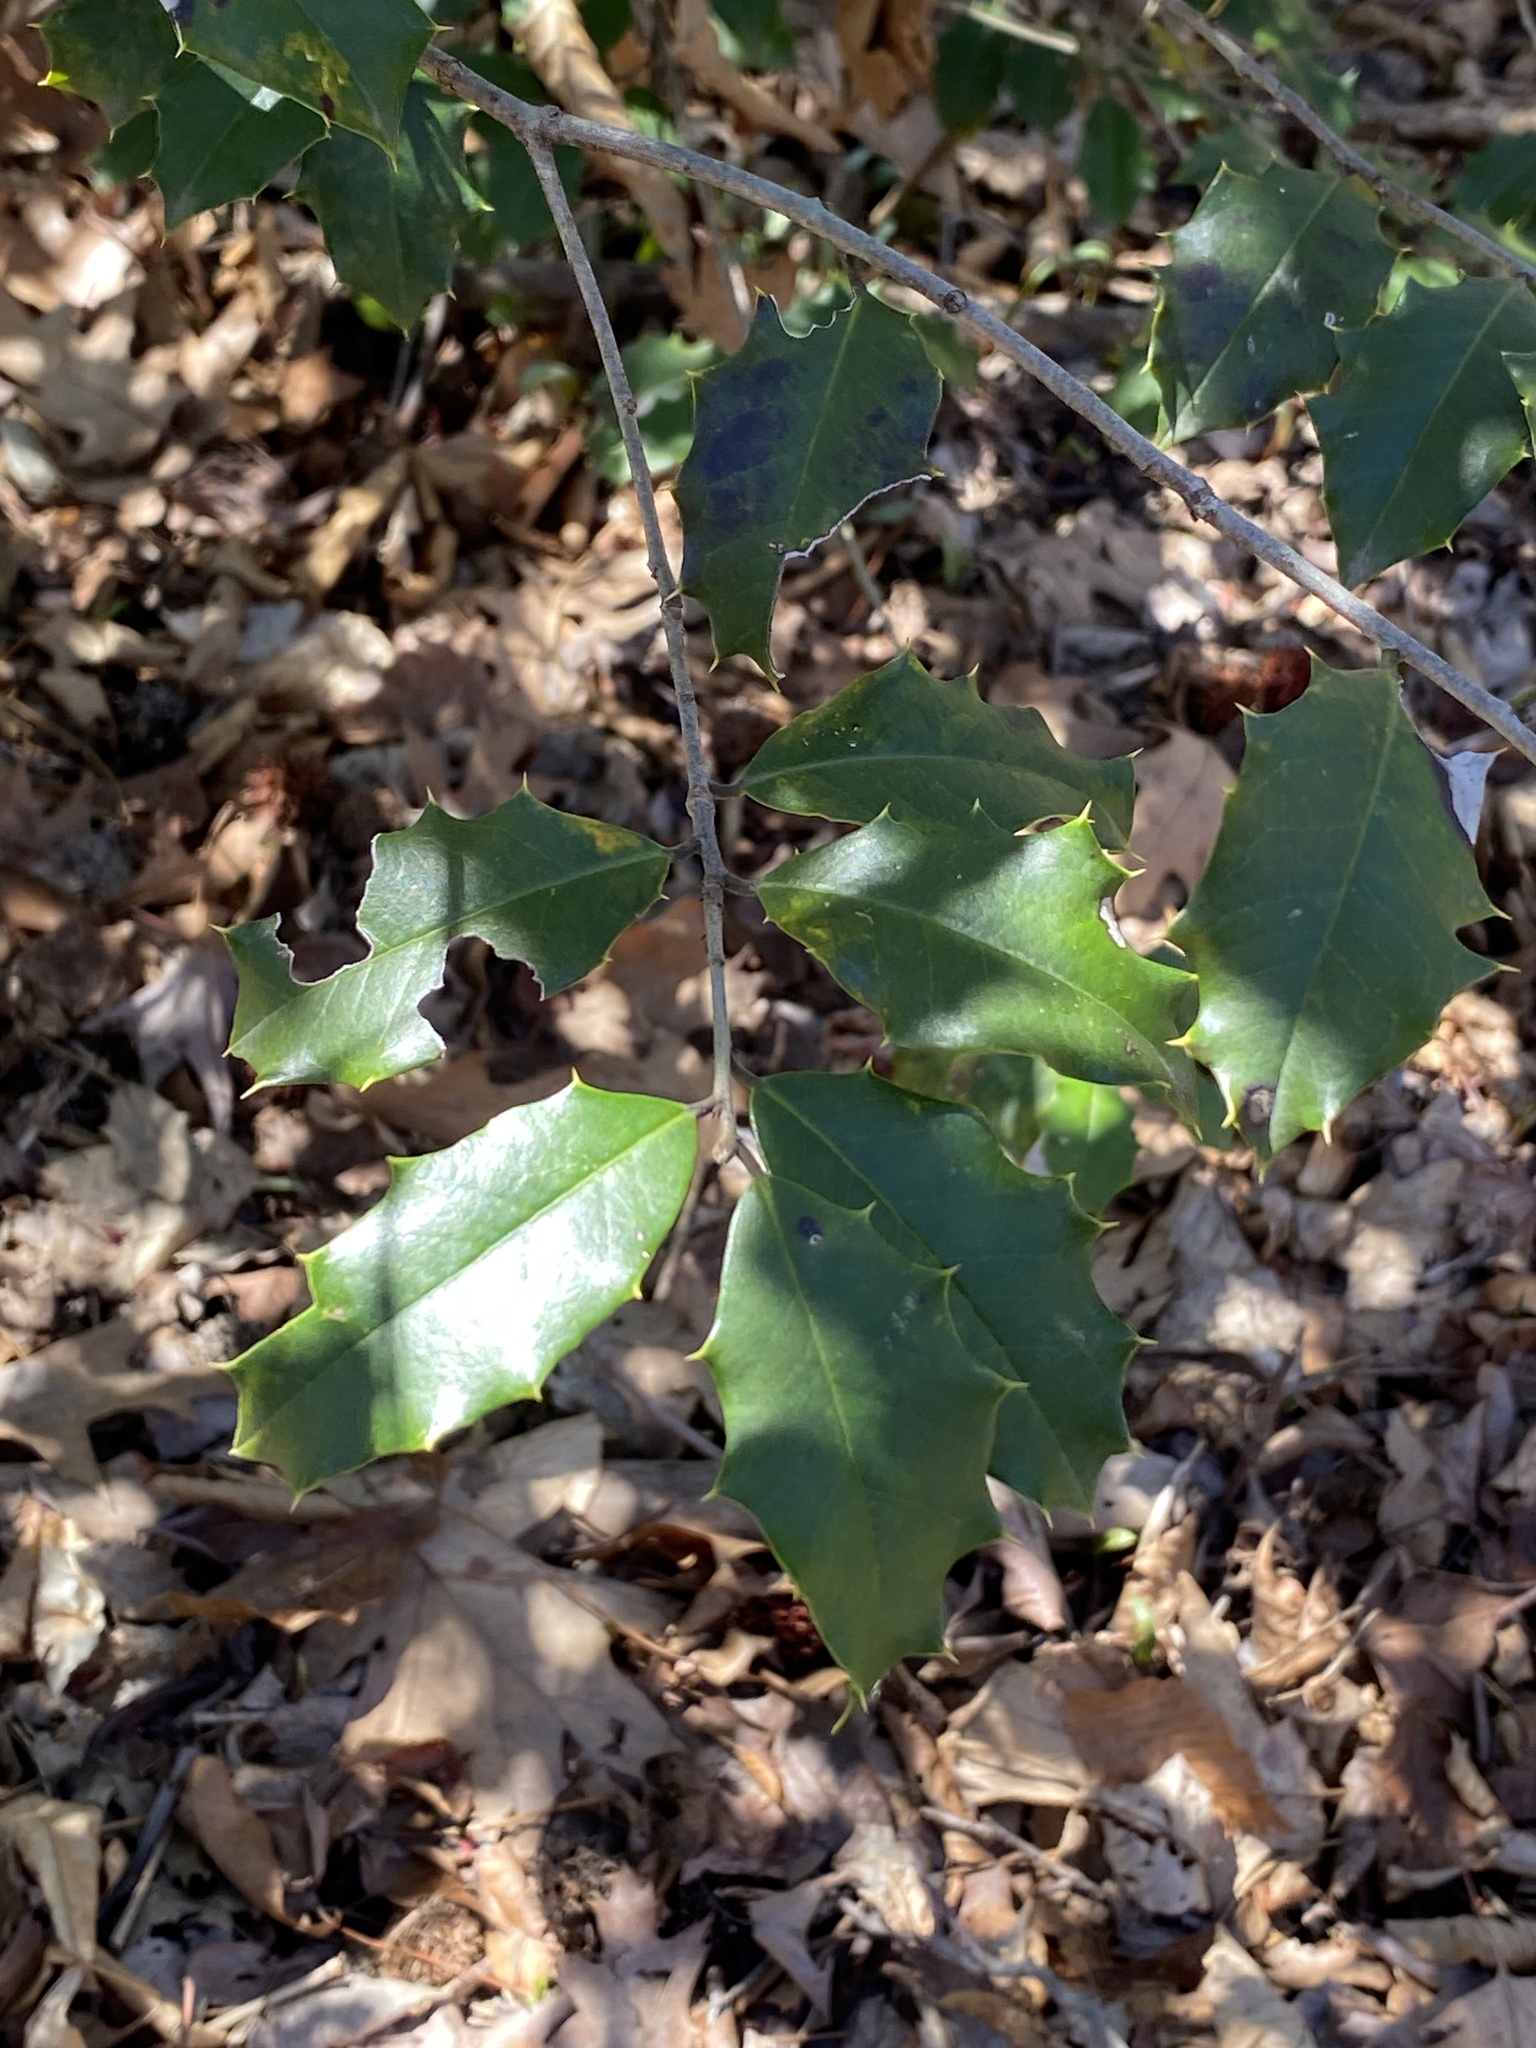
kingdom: Plantae
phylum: Tracheophyta
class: Magnoliopsida
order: Aquifoliales
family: Aquifoliaceae
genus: Ilex
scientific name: Ilex opaca
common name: American holly
